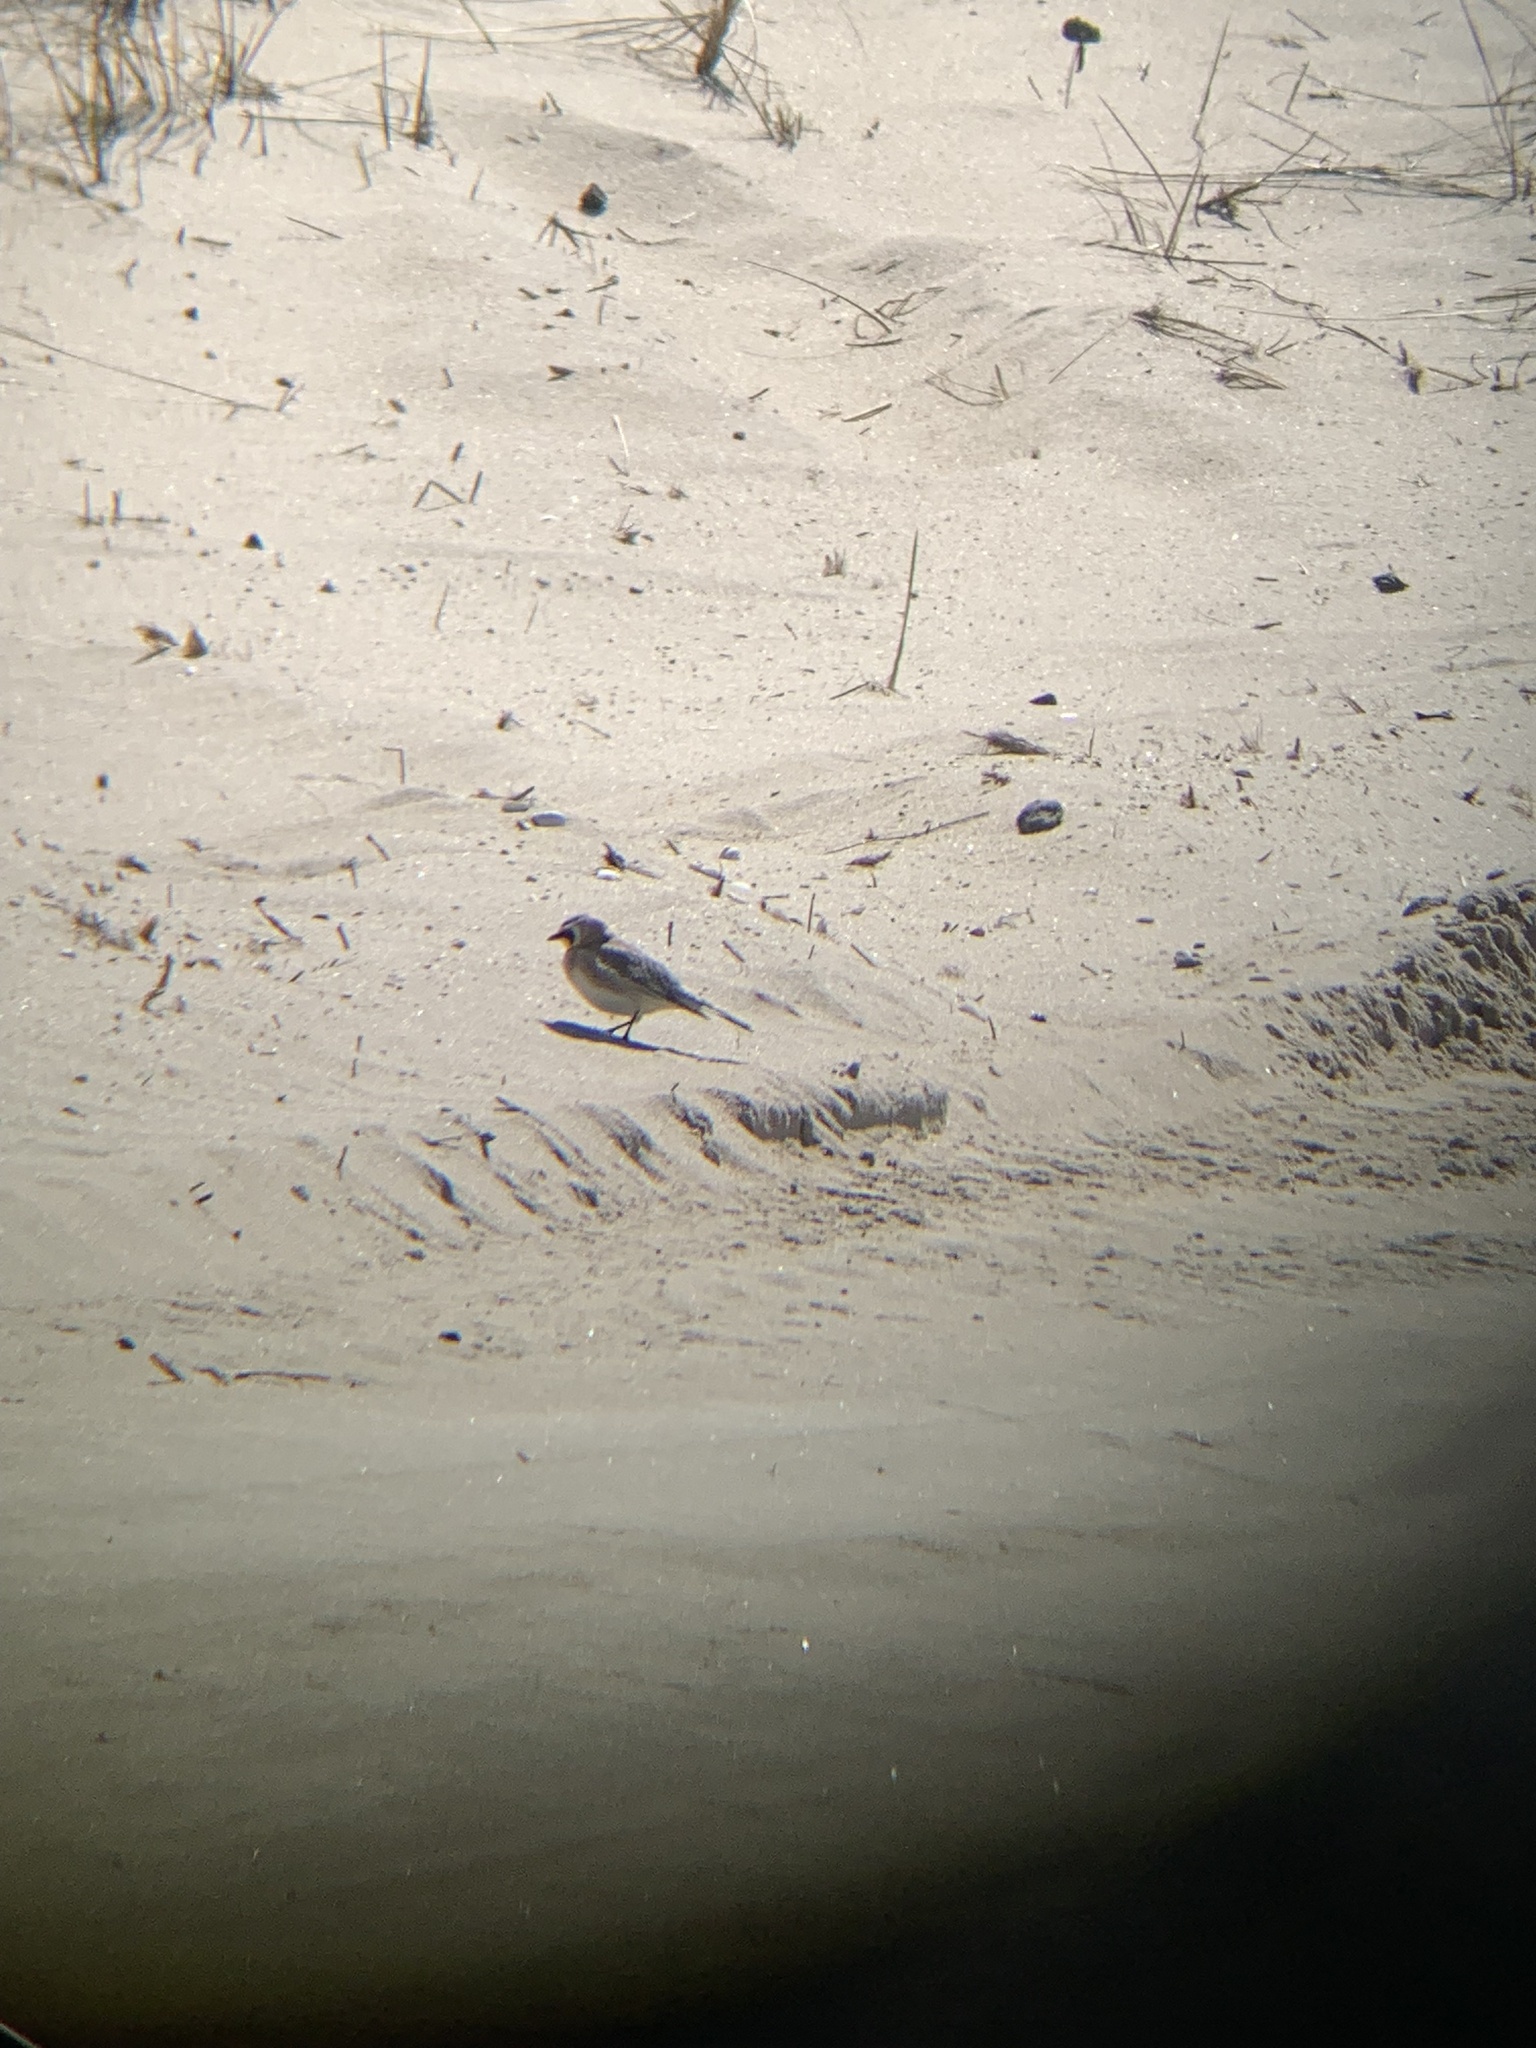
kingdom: Animalia
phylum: Chordata
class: Aves
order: Passeriformes
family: Alaudidae
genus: Eremophila
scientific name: Eremophila alpestris
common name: Horned lark
